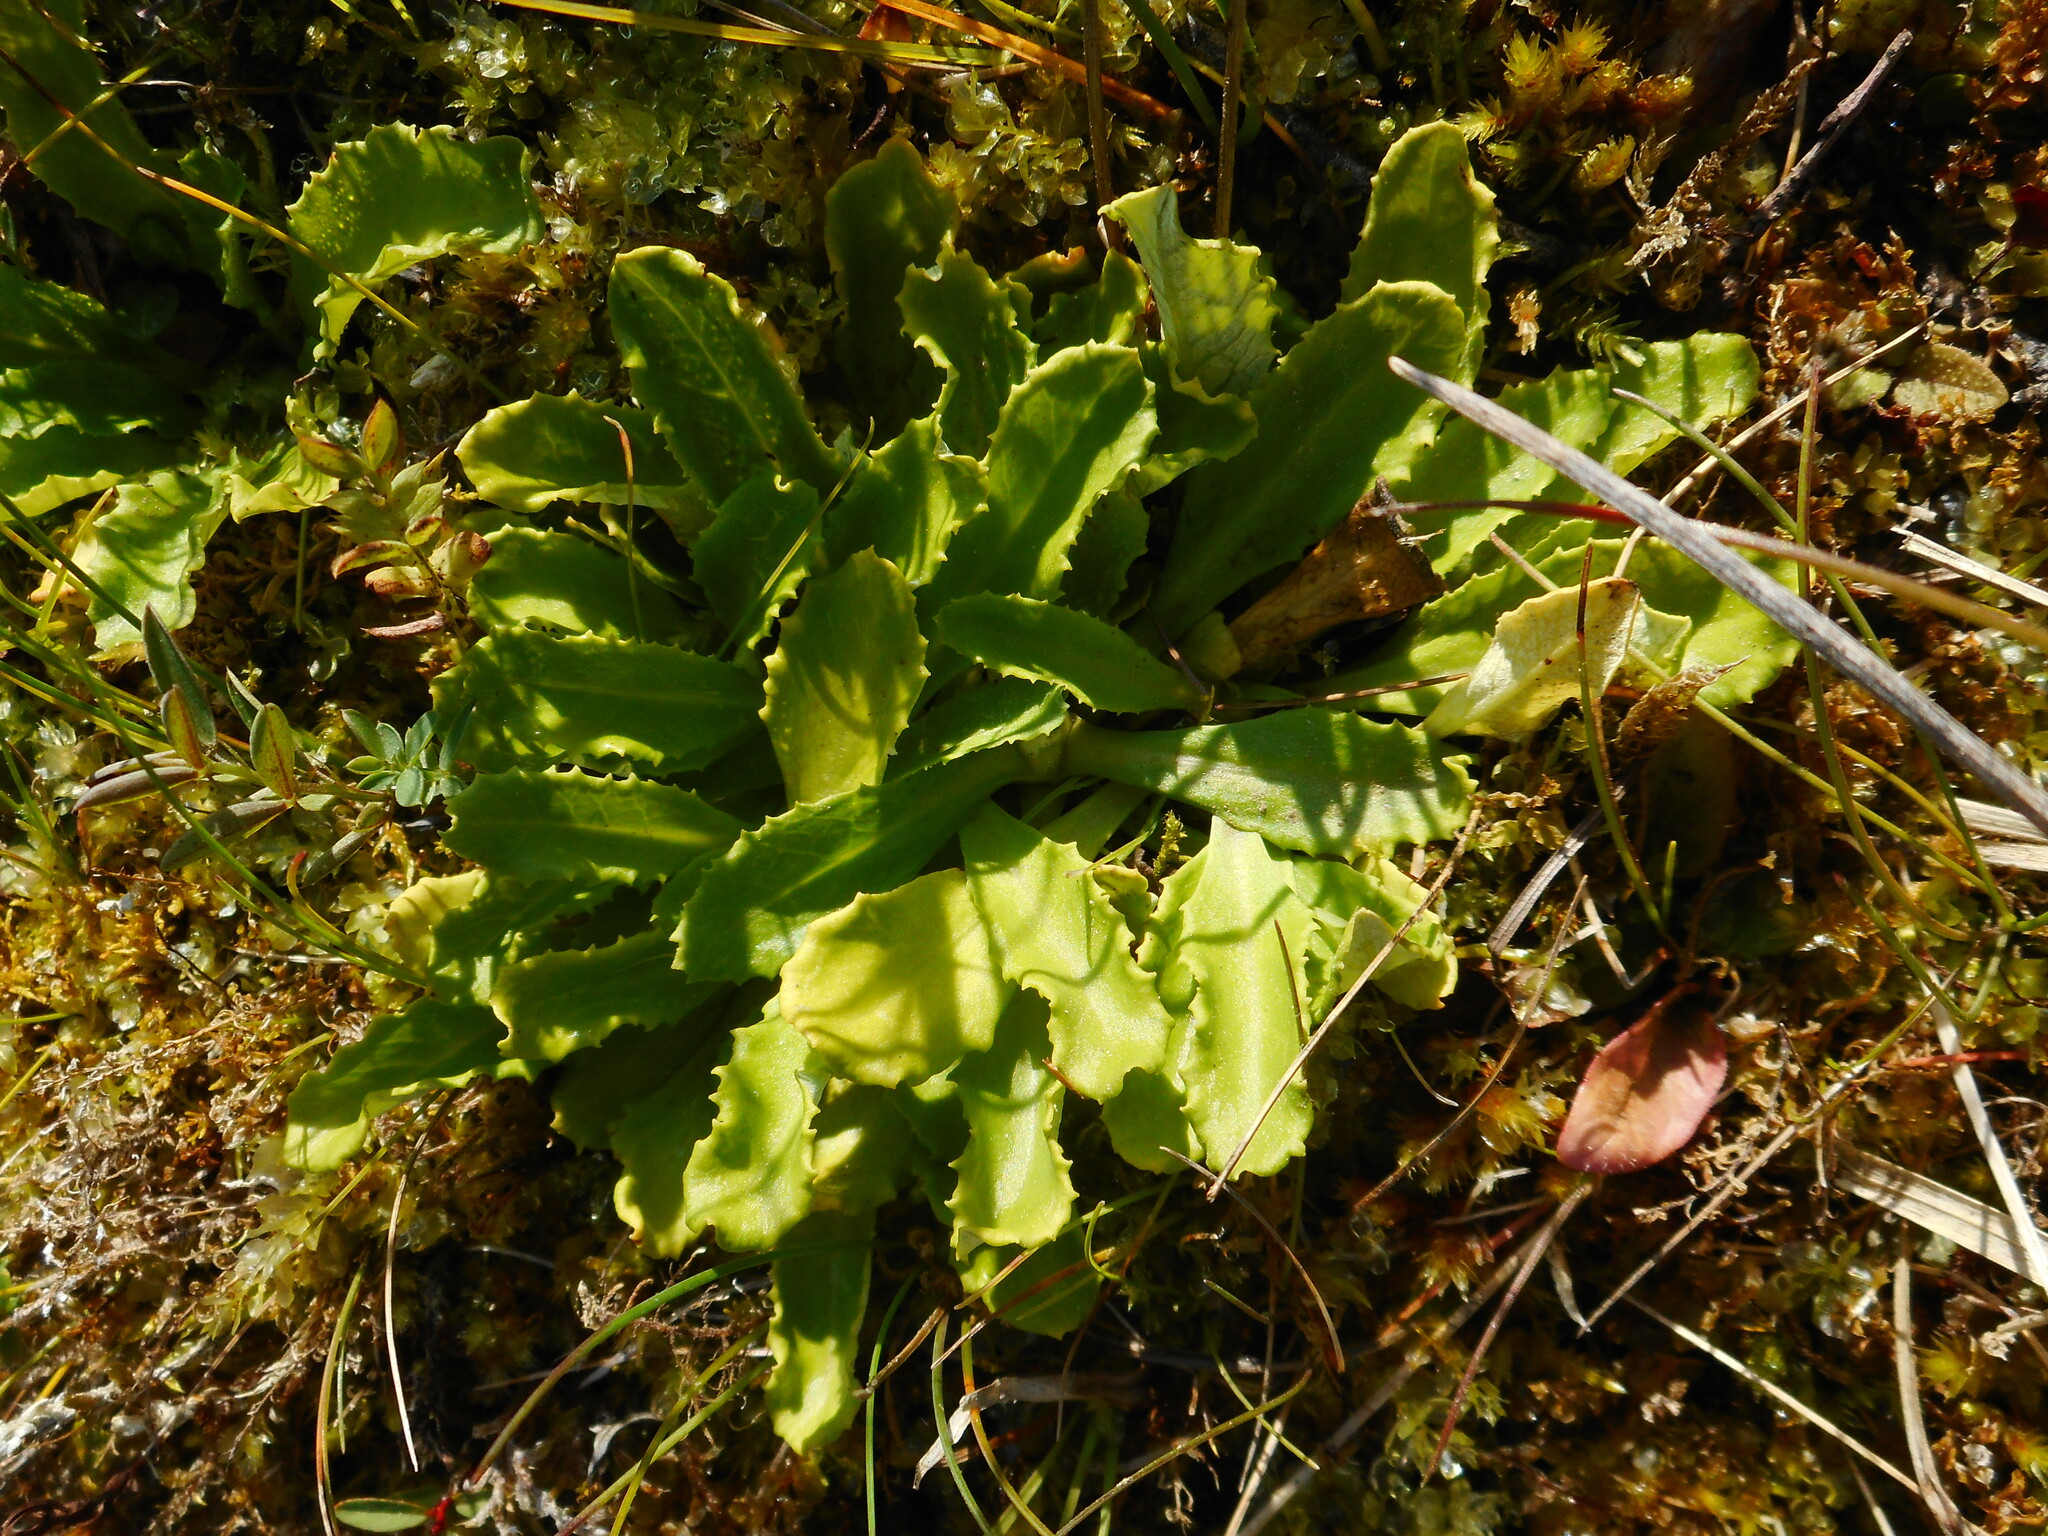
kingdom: Plantae
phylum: Tracheophyta
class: Magnoliopsida
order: Ericales
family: Primulaceae
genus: Primula
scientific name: Primula farinosa
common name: Bird's-eye primrose
